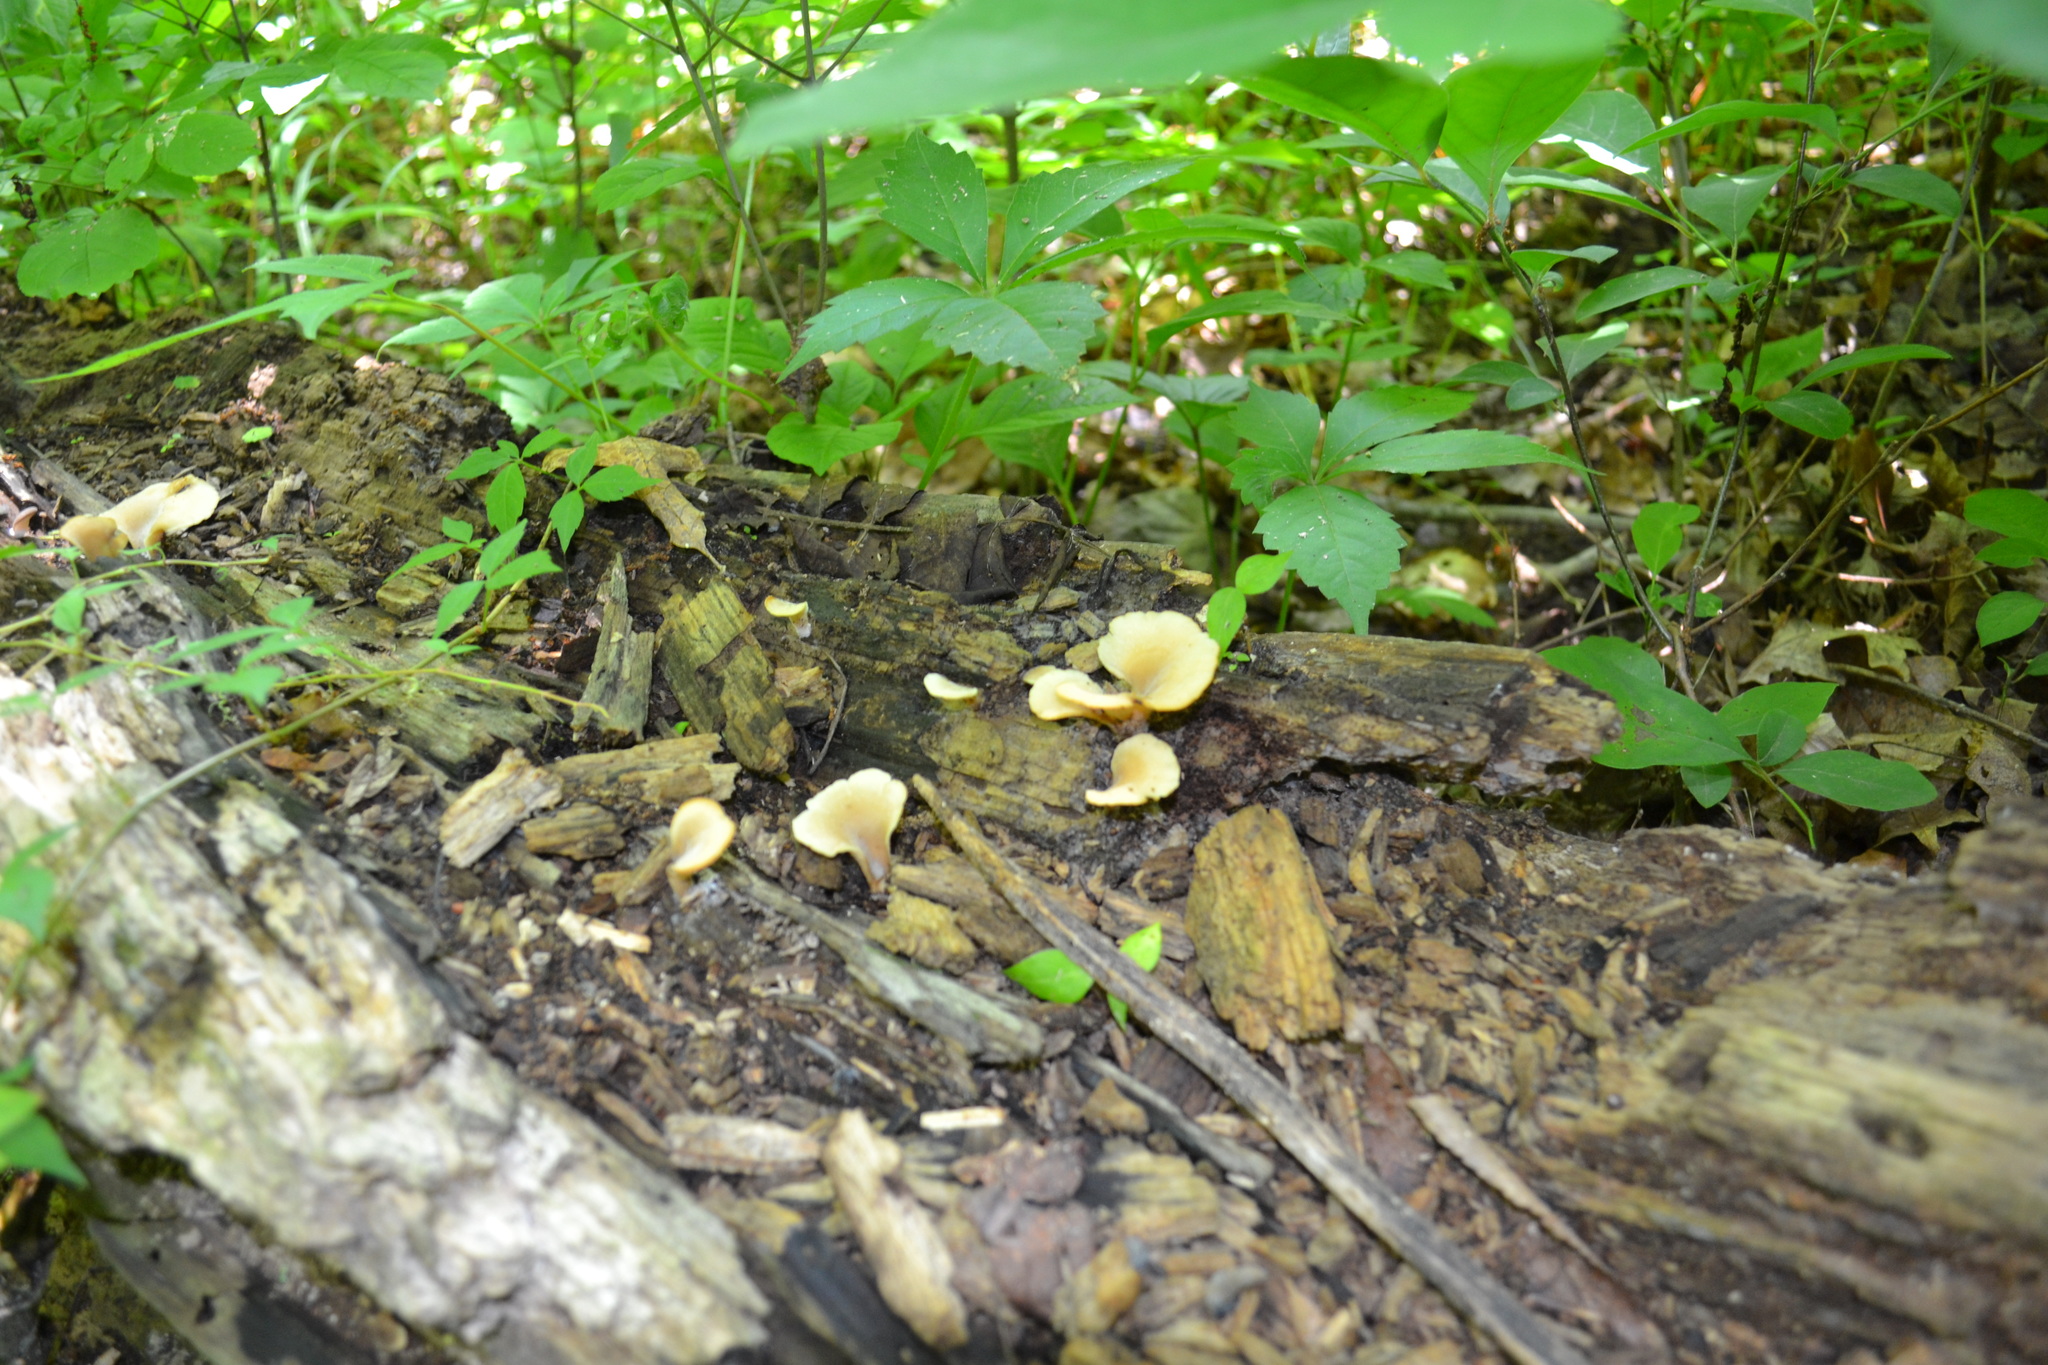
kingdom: Fungi
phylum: Basidiomycota
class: Agaricomycetes
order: Agaricales
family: Pleurotaceae
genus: Hohenbuehelia
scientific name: Hohenbuehelia angustata
